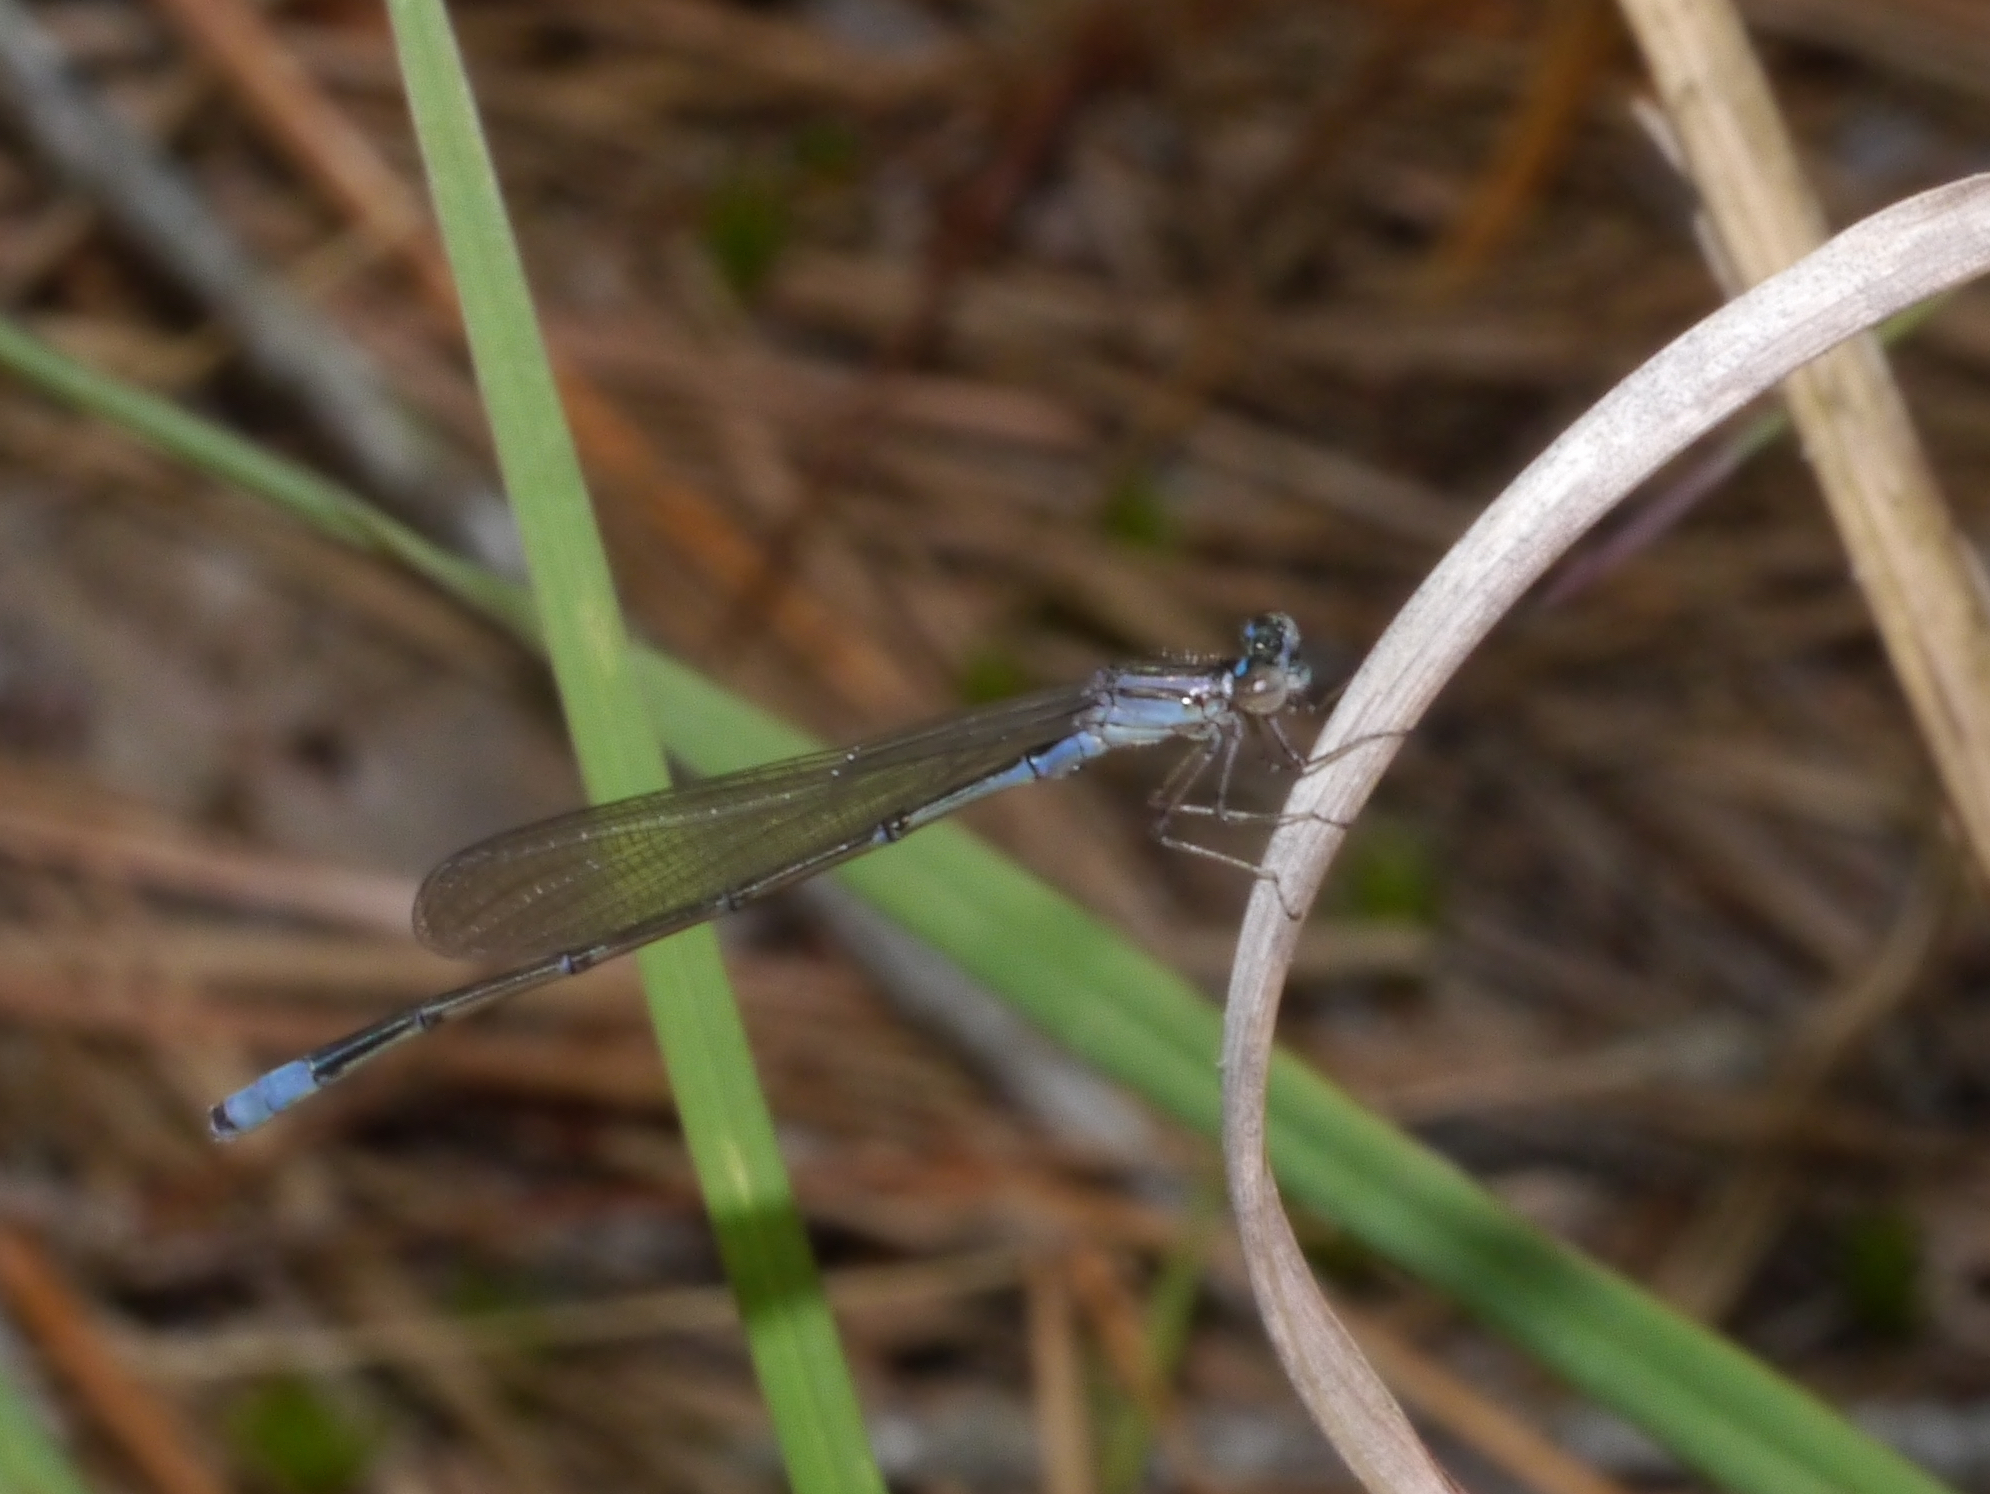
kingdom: Animalia
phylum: Arthropoda
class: Insecta
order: Odonata
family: Coenagrionidae
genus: Enallagma
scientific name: Enallagma divagans
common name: Turquoise bluet
